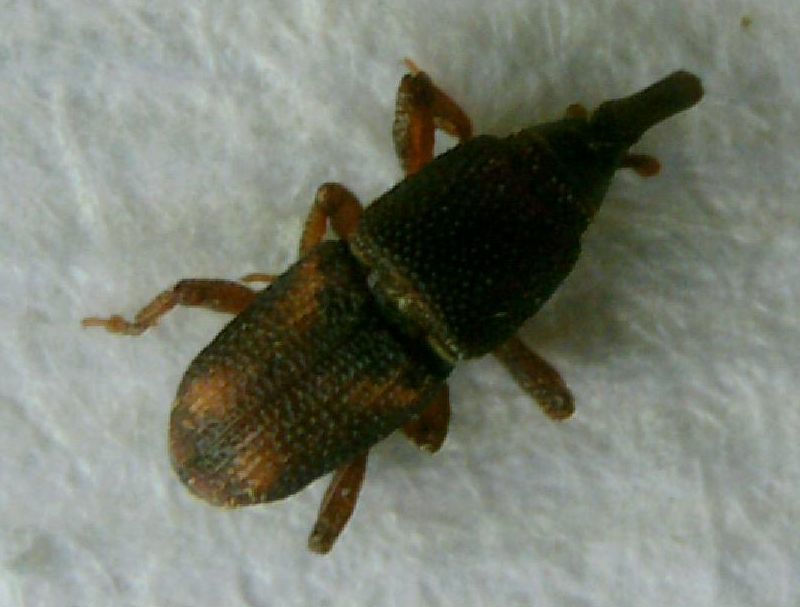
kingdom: Animalia
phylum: Arthropoda
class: Insecta
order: Coleoptera
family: Dryophthoridae
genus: Sitophilus
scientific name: Sitophilus zeamais
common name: Palm weevil
